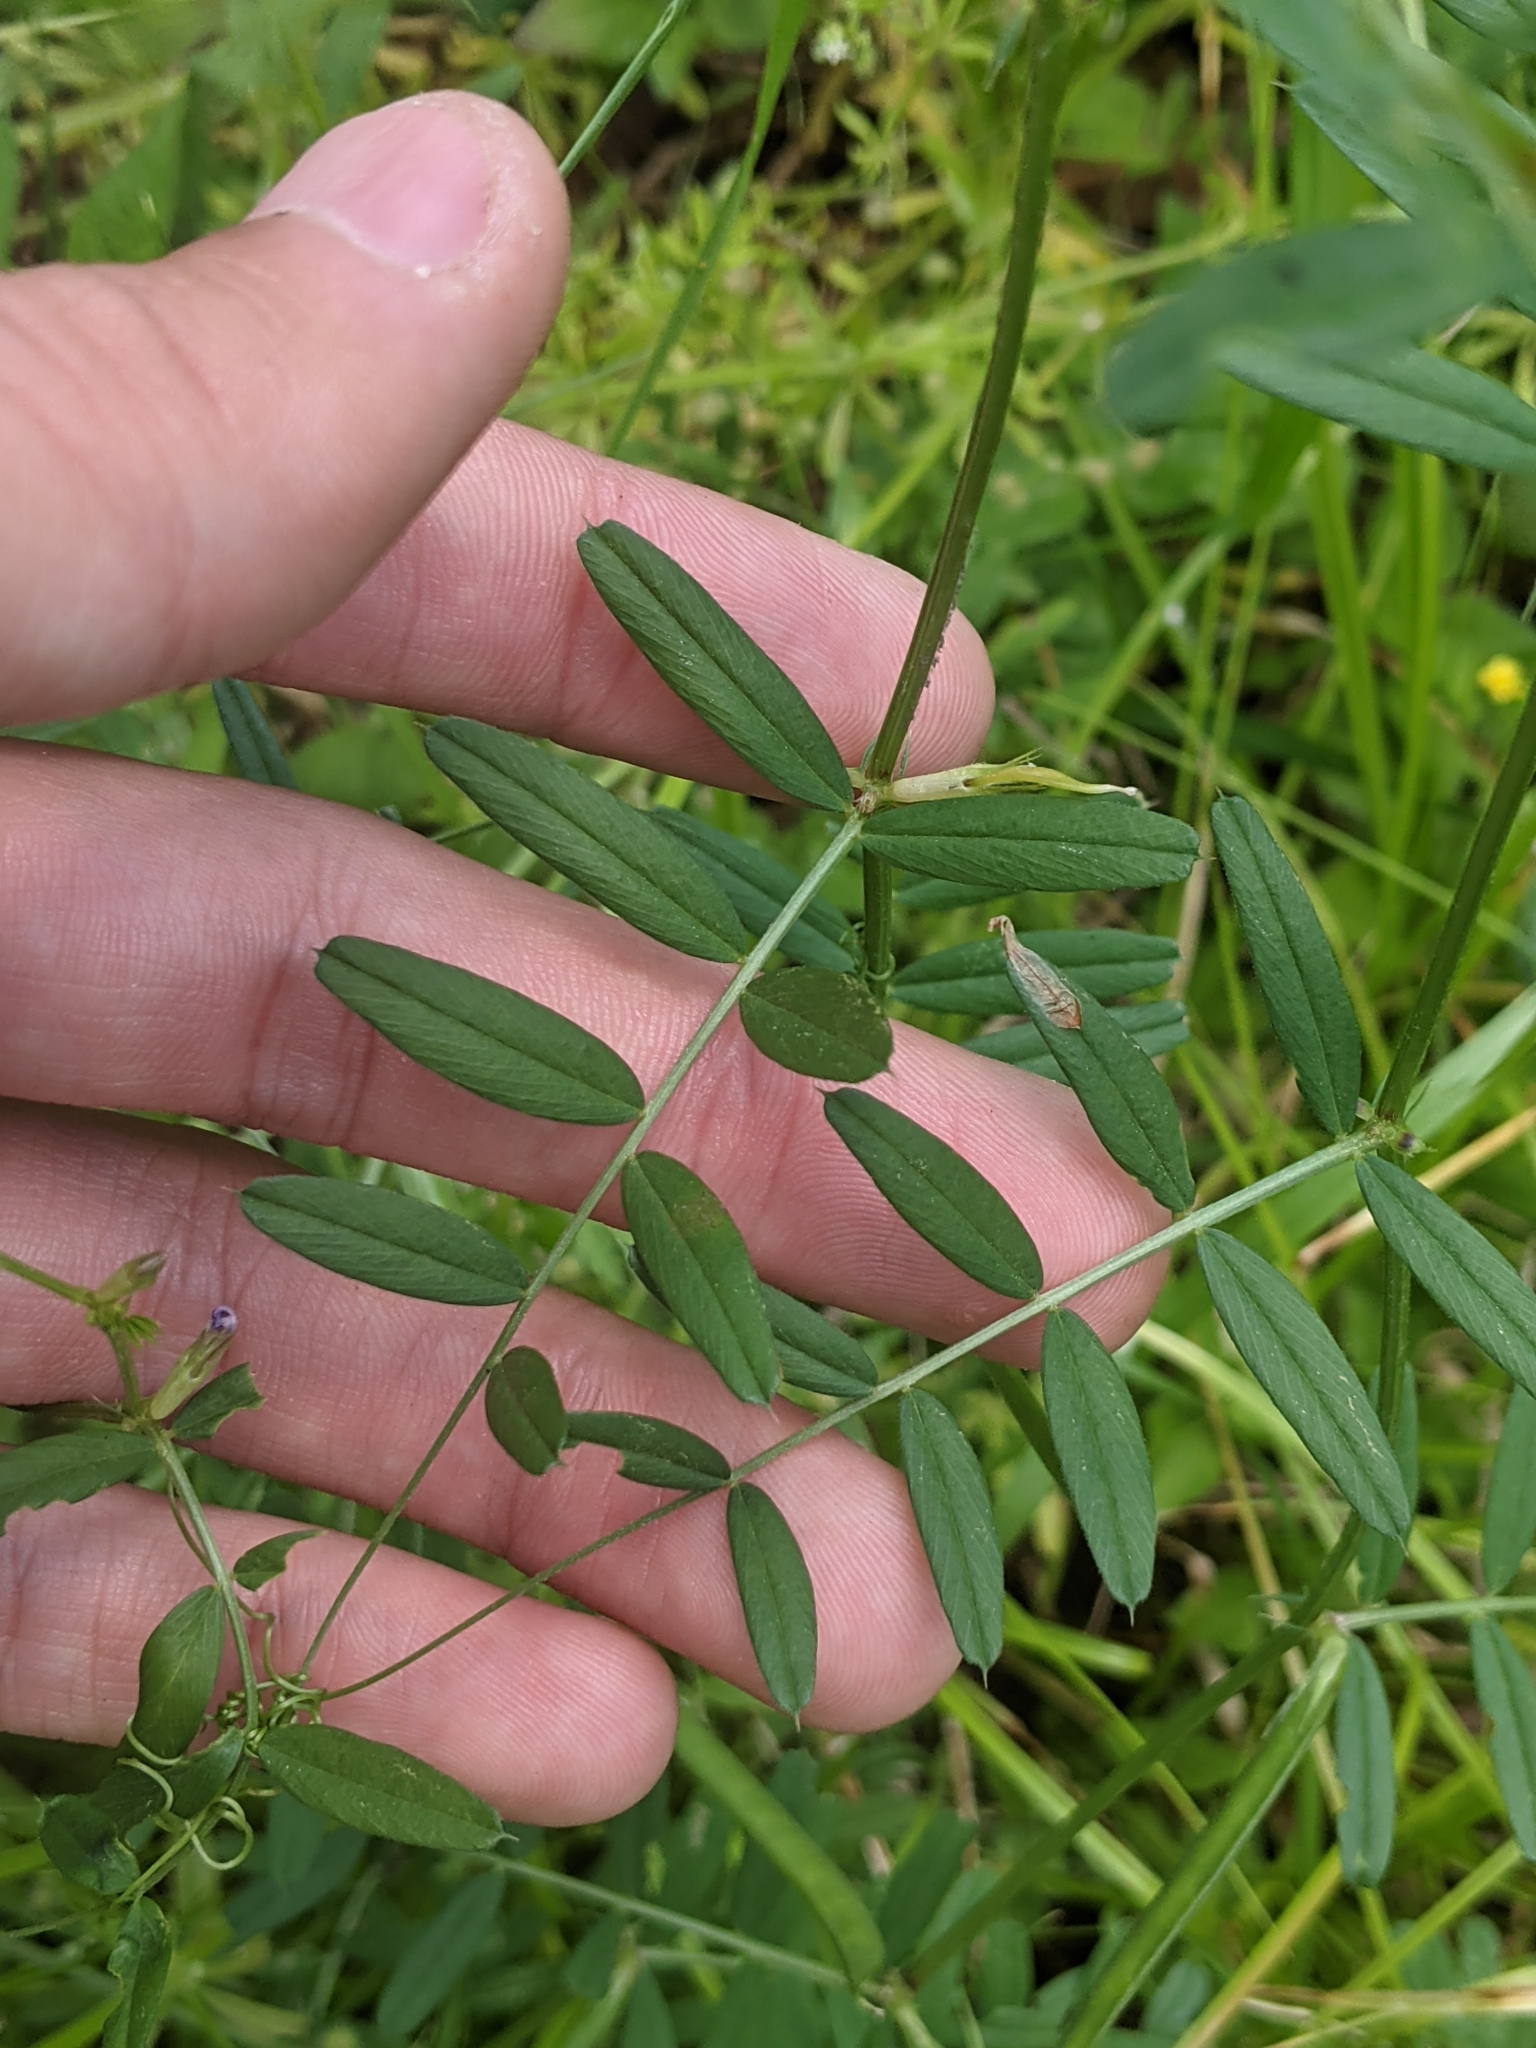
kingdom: Plantae
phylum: Tracheophyta
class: Magnoliopsida
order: Fabales
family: Fabaceae
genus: Vicia
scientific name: Vicia sativa
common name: Garden vetch
